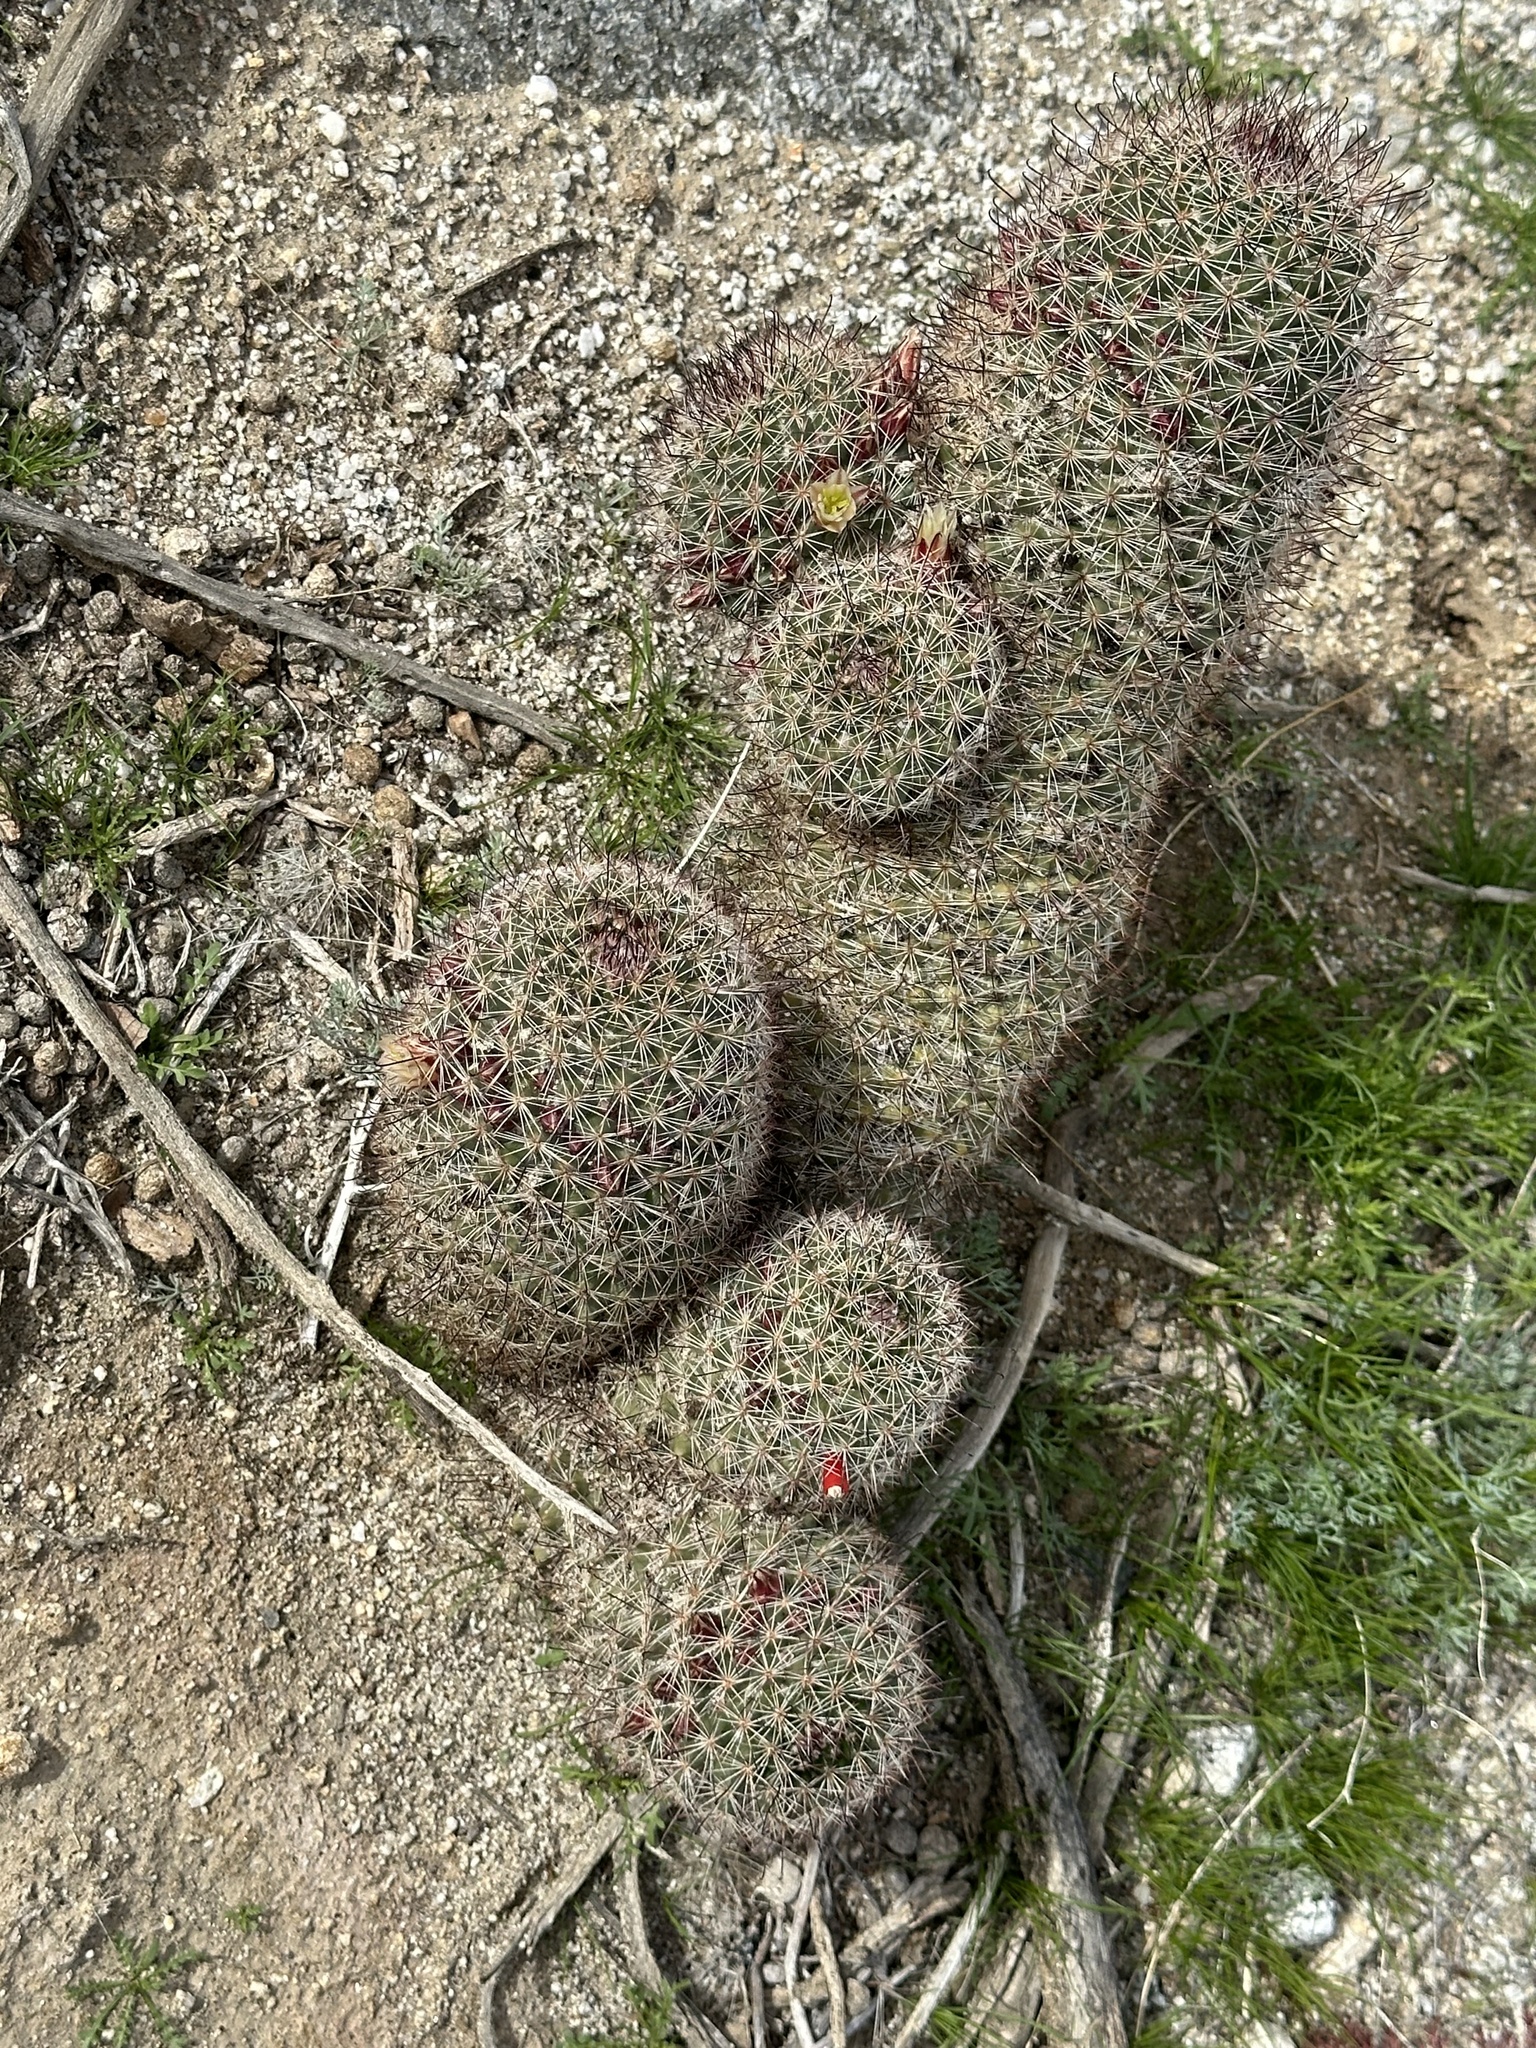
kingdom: Plantae
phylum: Tracheophyta
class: Magnoliopsida
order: Caryophyllales
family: Cactaceae
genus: Cochemiea
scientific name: Cochemiea dioica
